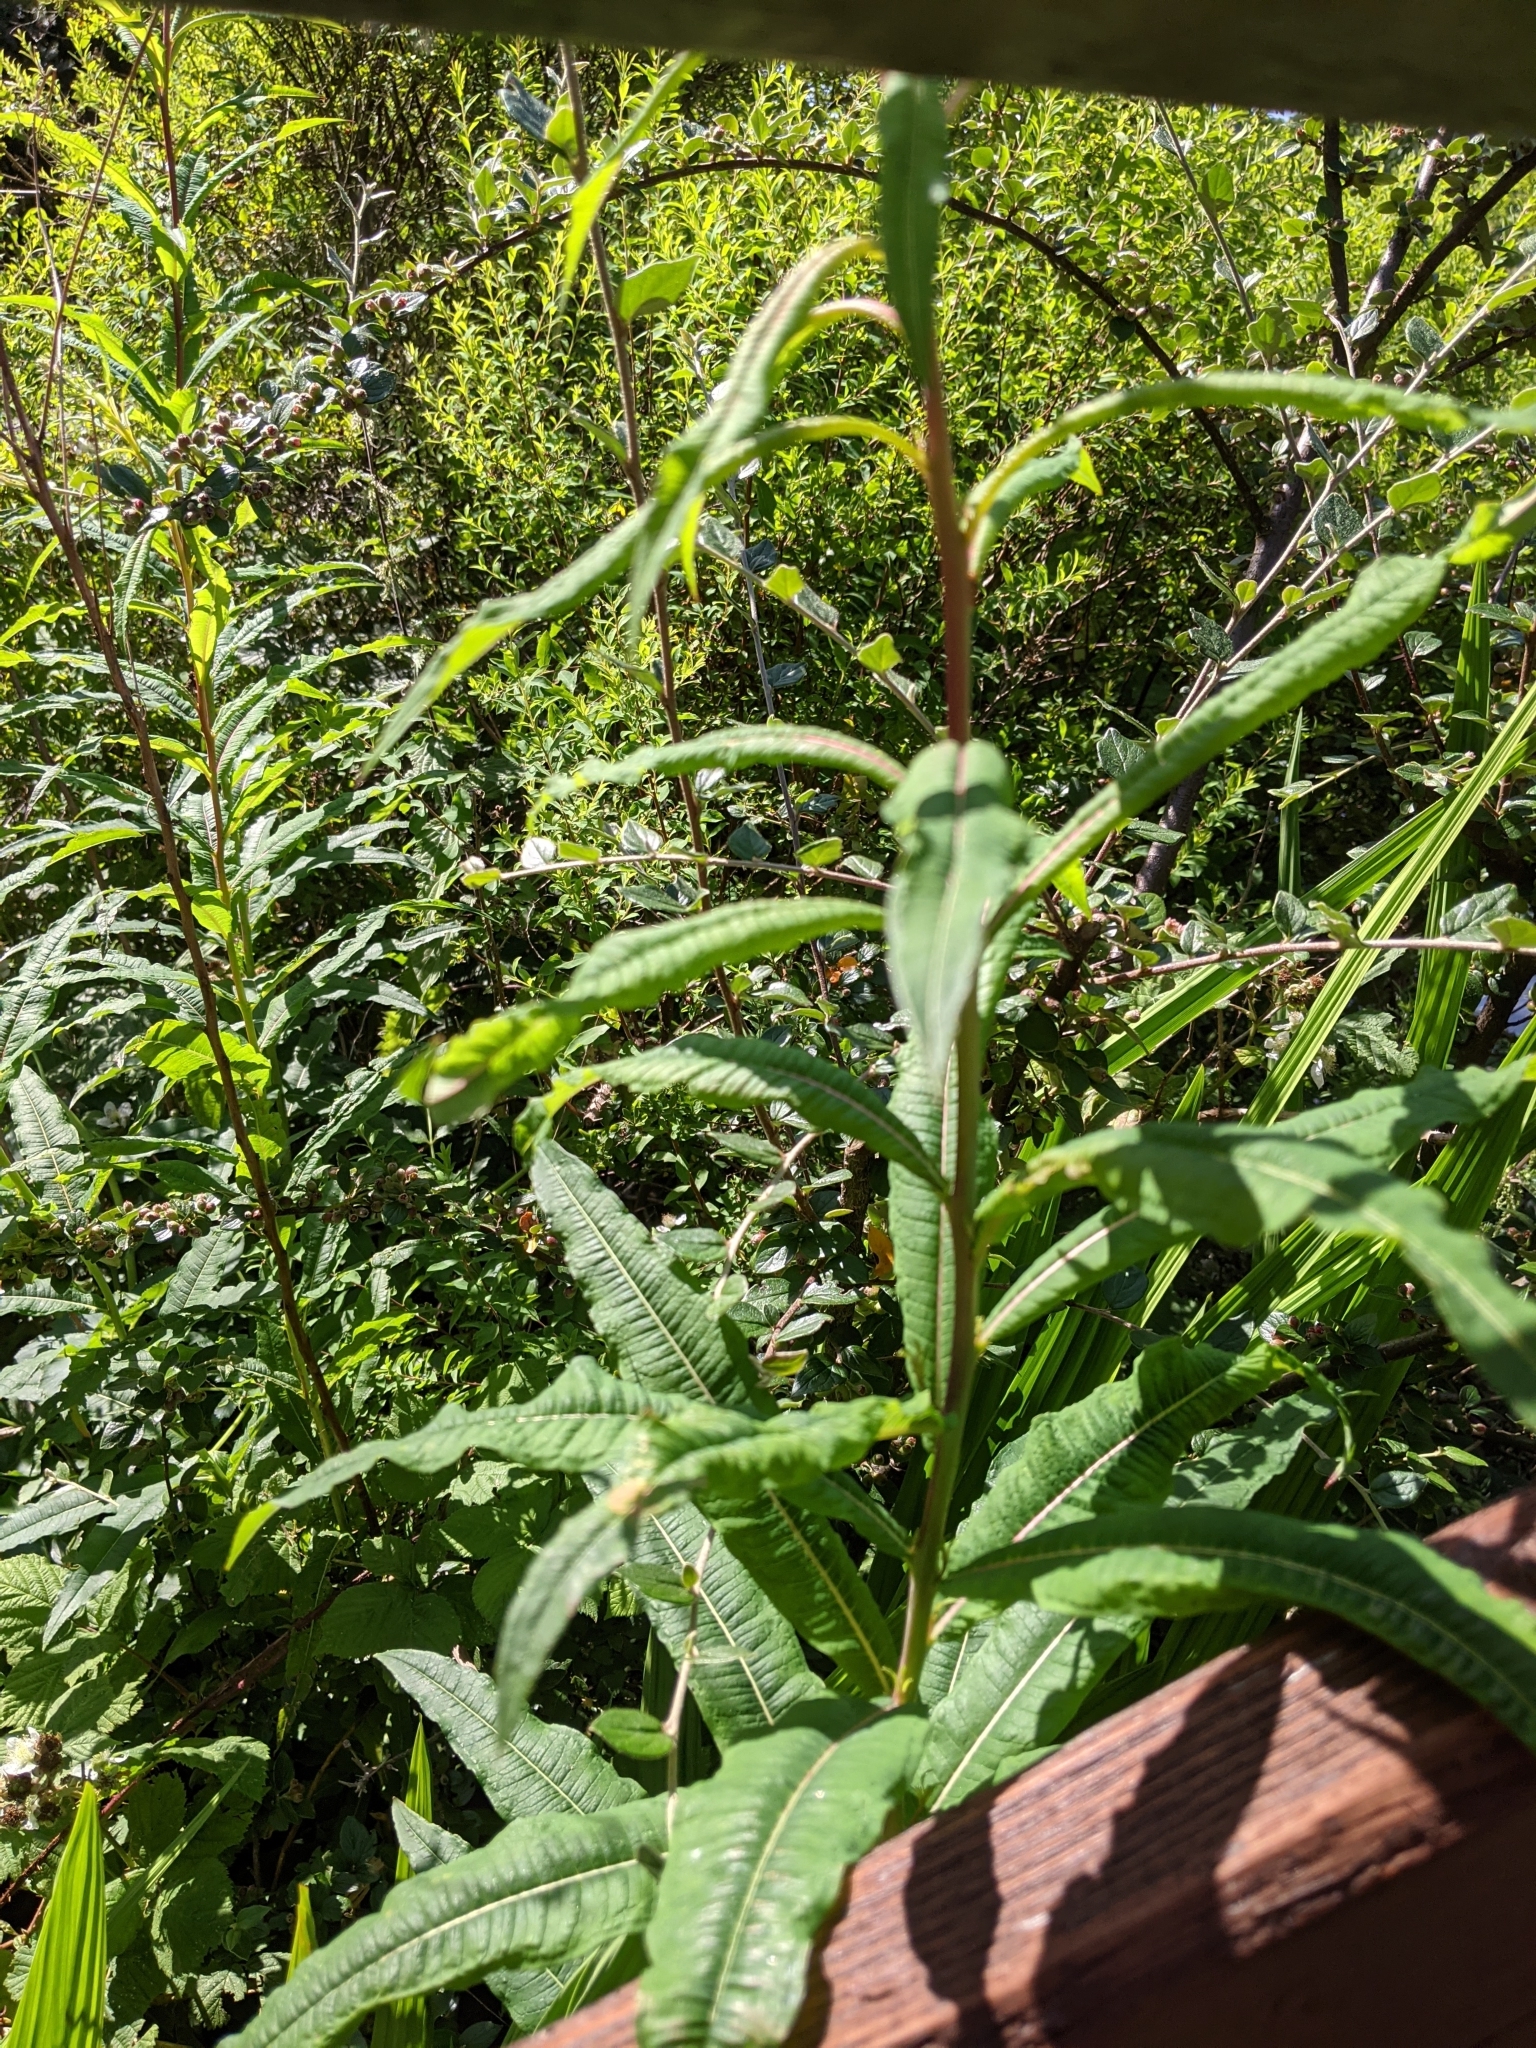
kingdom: Plantae
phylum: Tracheophyta
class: Magnoliopsida
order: Myrtales
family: Onagraceae
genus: Chamaenerion
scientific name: Chamaenerion angustifolium
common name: Fireweed
